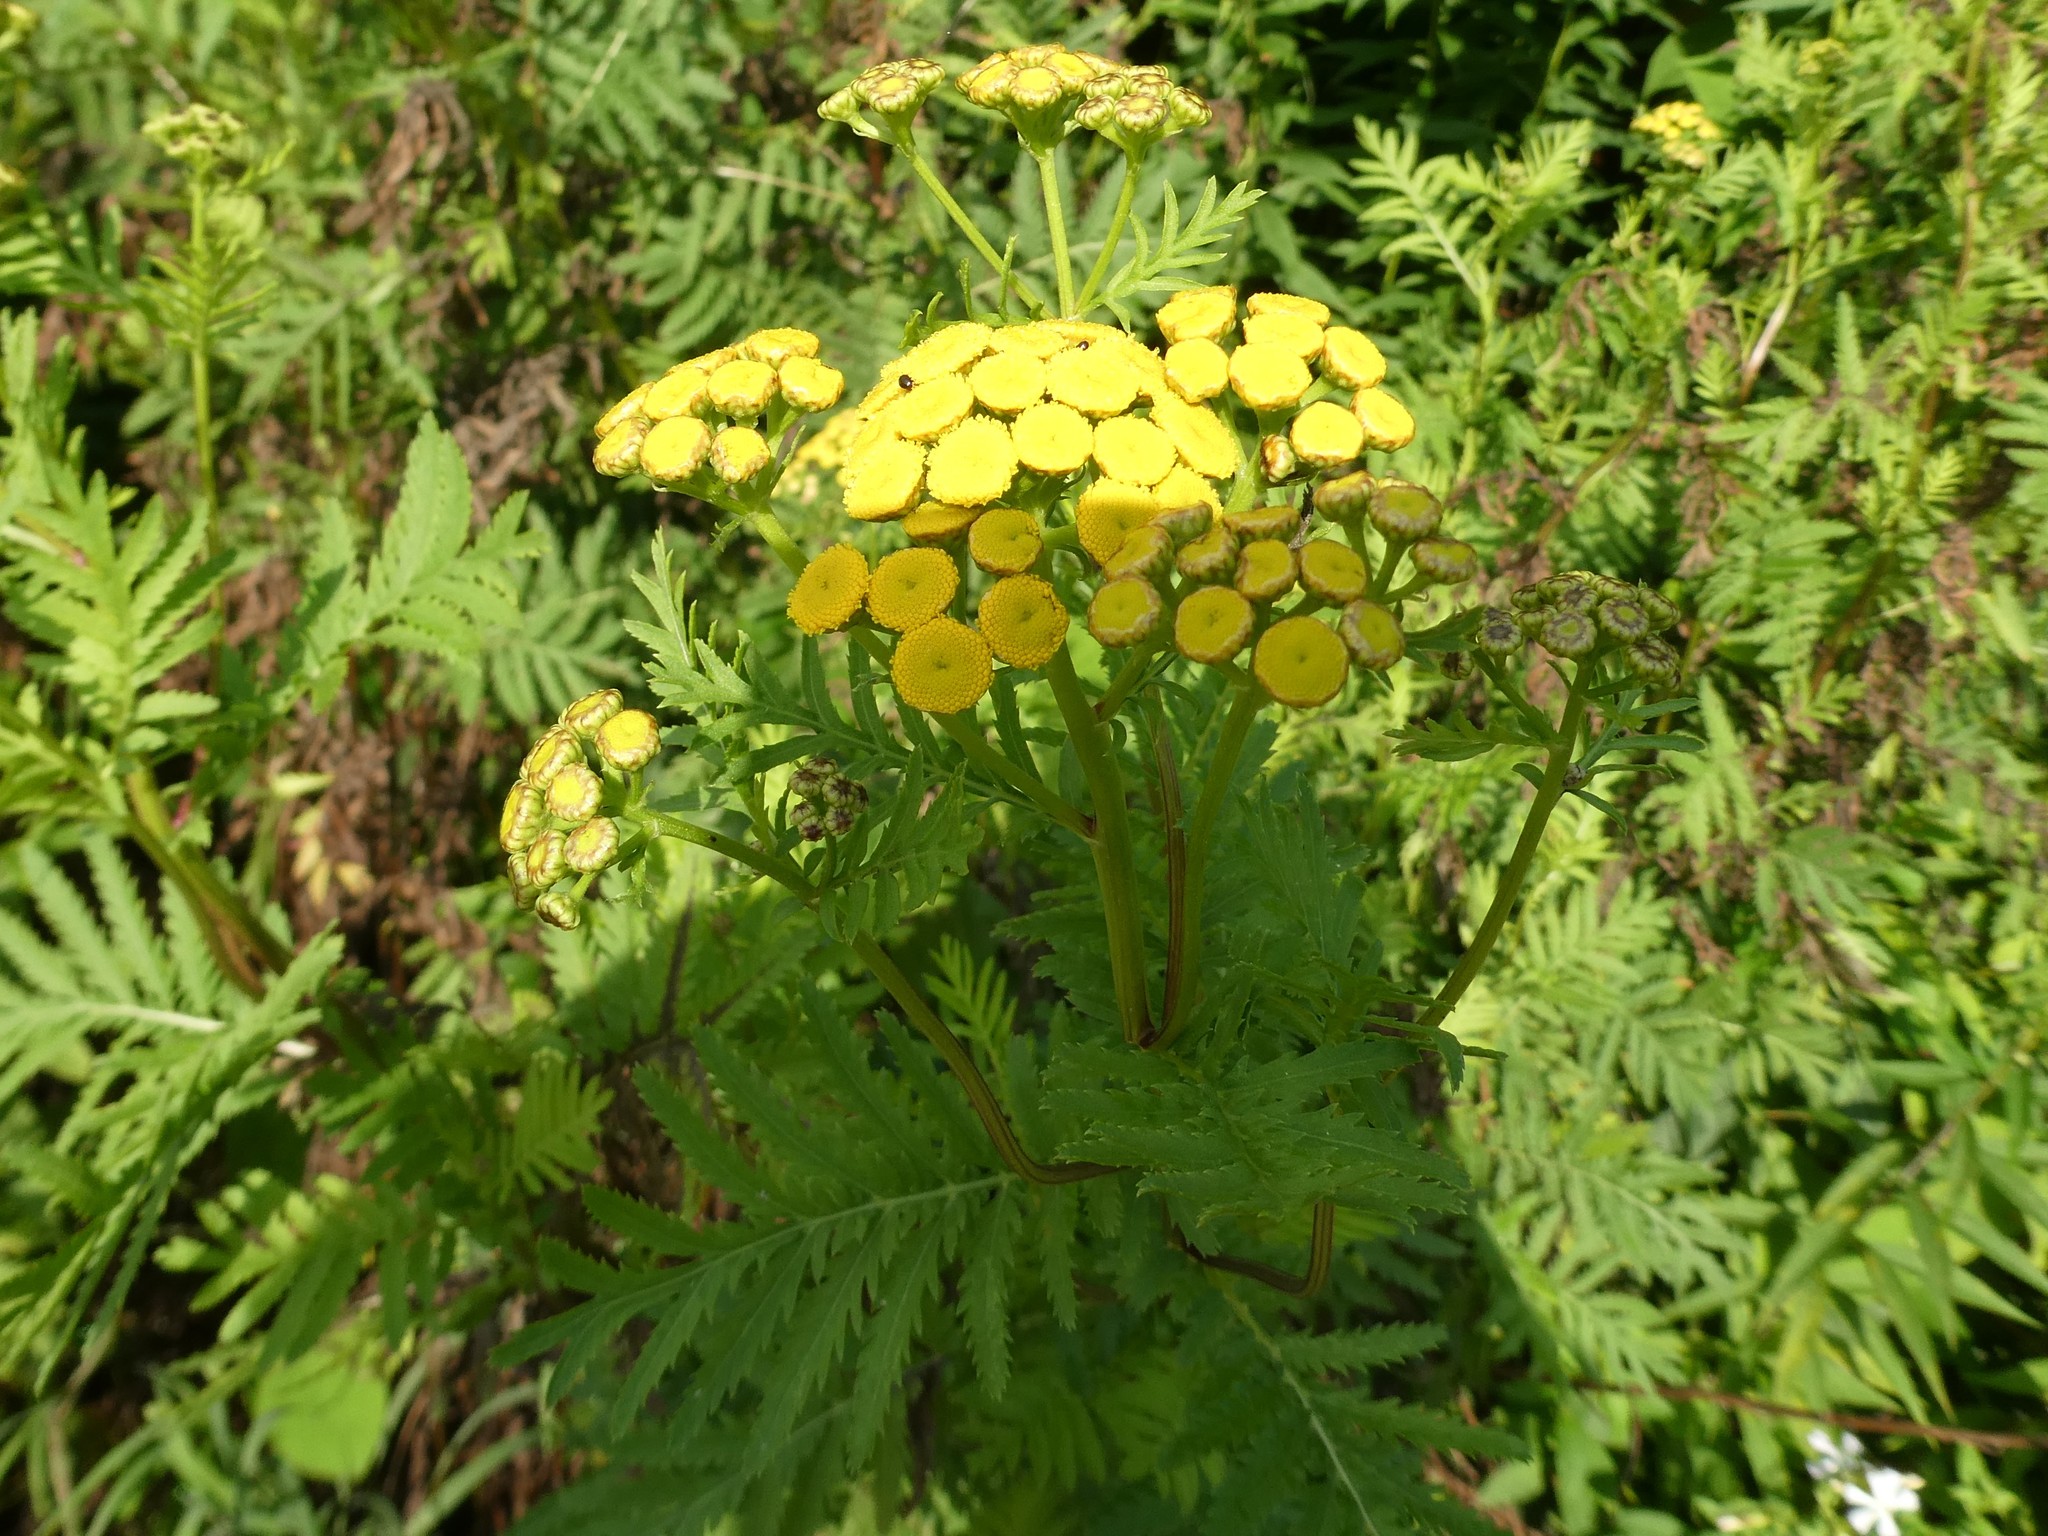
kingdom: Plantae
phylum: Tracheophyta
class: Magnoliopsida
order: Asterales
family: Asteraceae
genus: Tanacetum
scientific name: Tanacetum vulgare
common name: Common tansy
